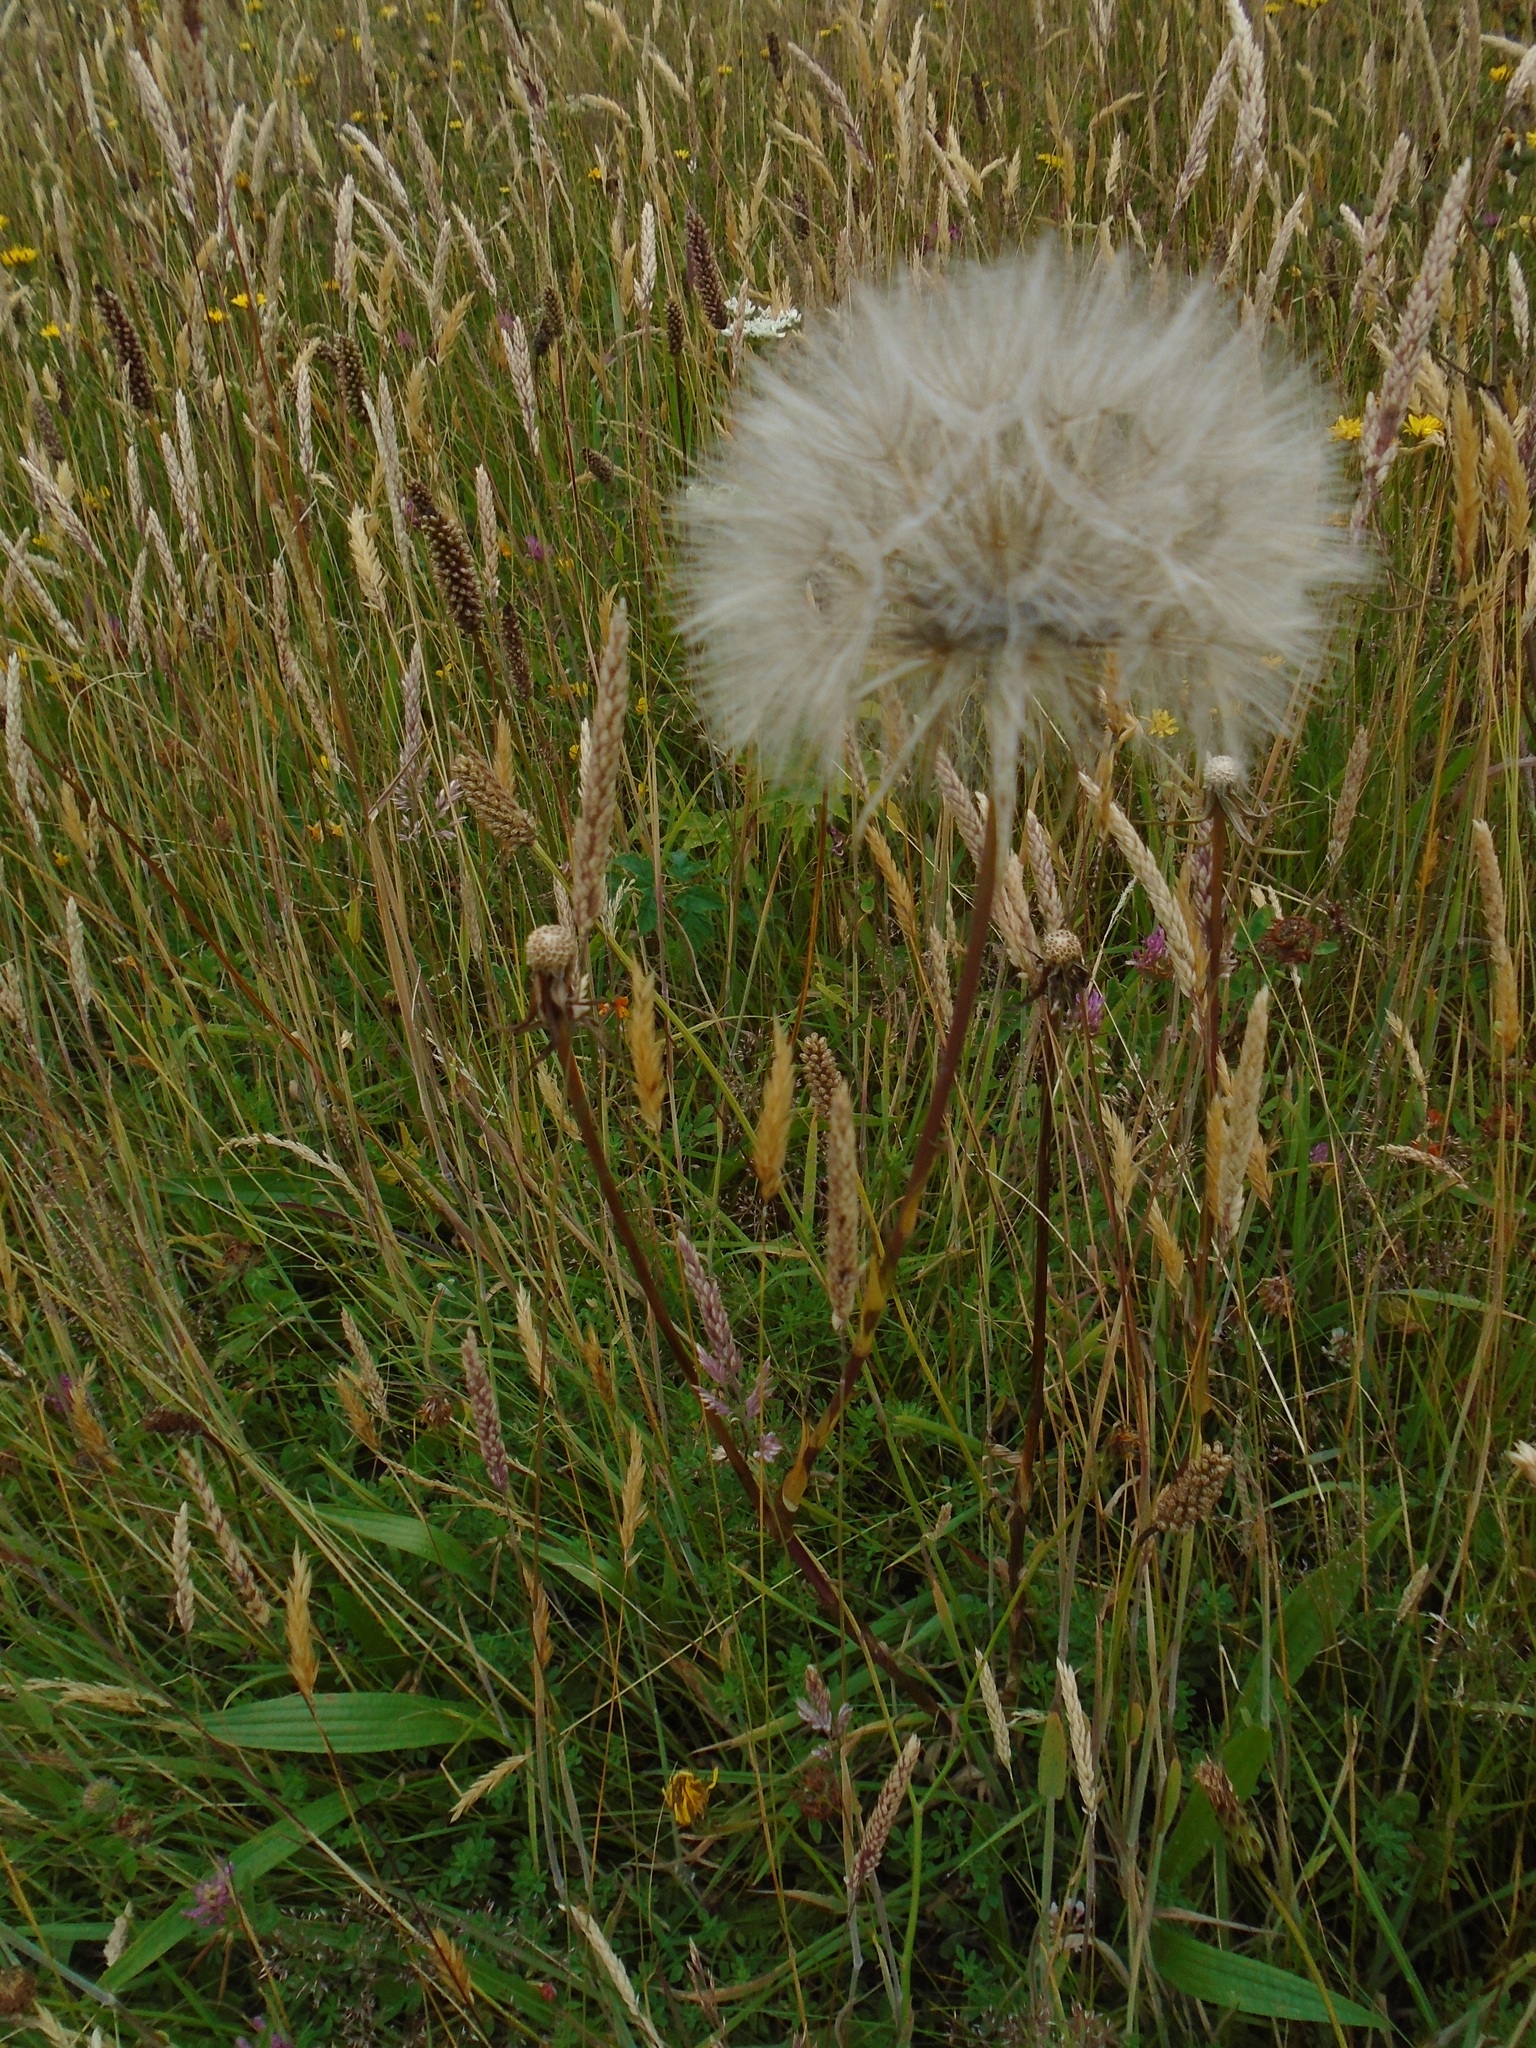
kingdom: Plantae
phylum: Tracheophyta
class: Magnoliopsida
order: Asterales
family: Asteraceae
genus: Tragopogon
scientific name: Tragopogon pratensis
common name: Goat's-beard
